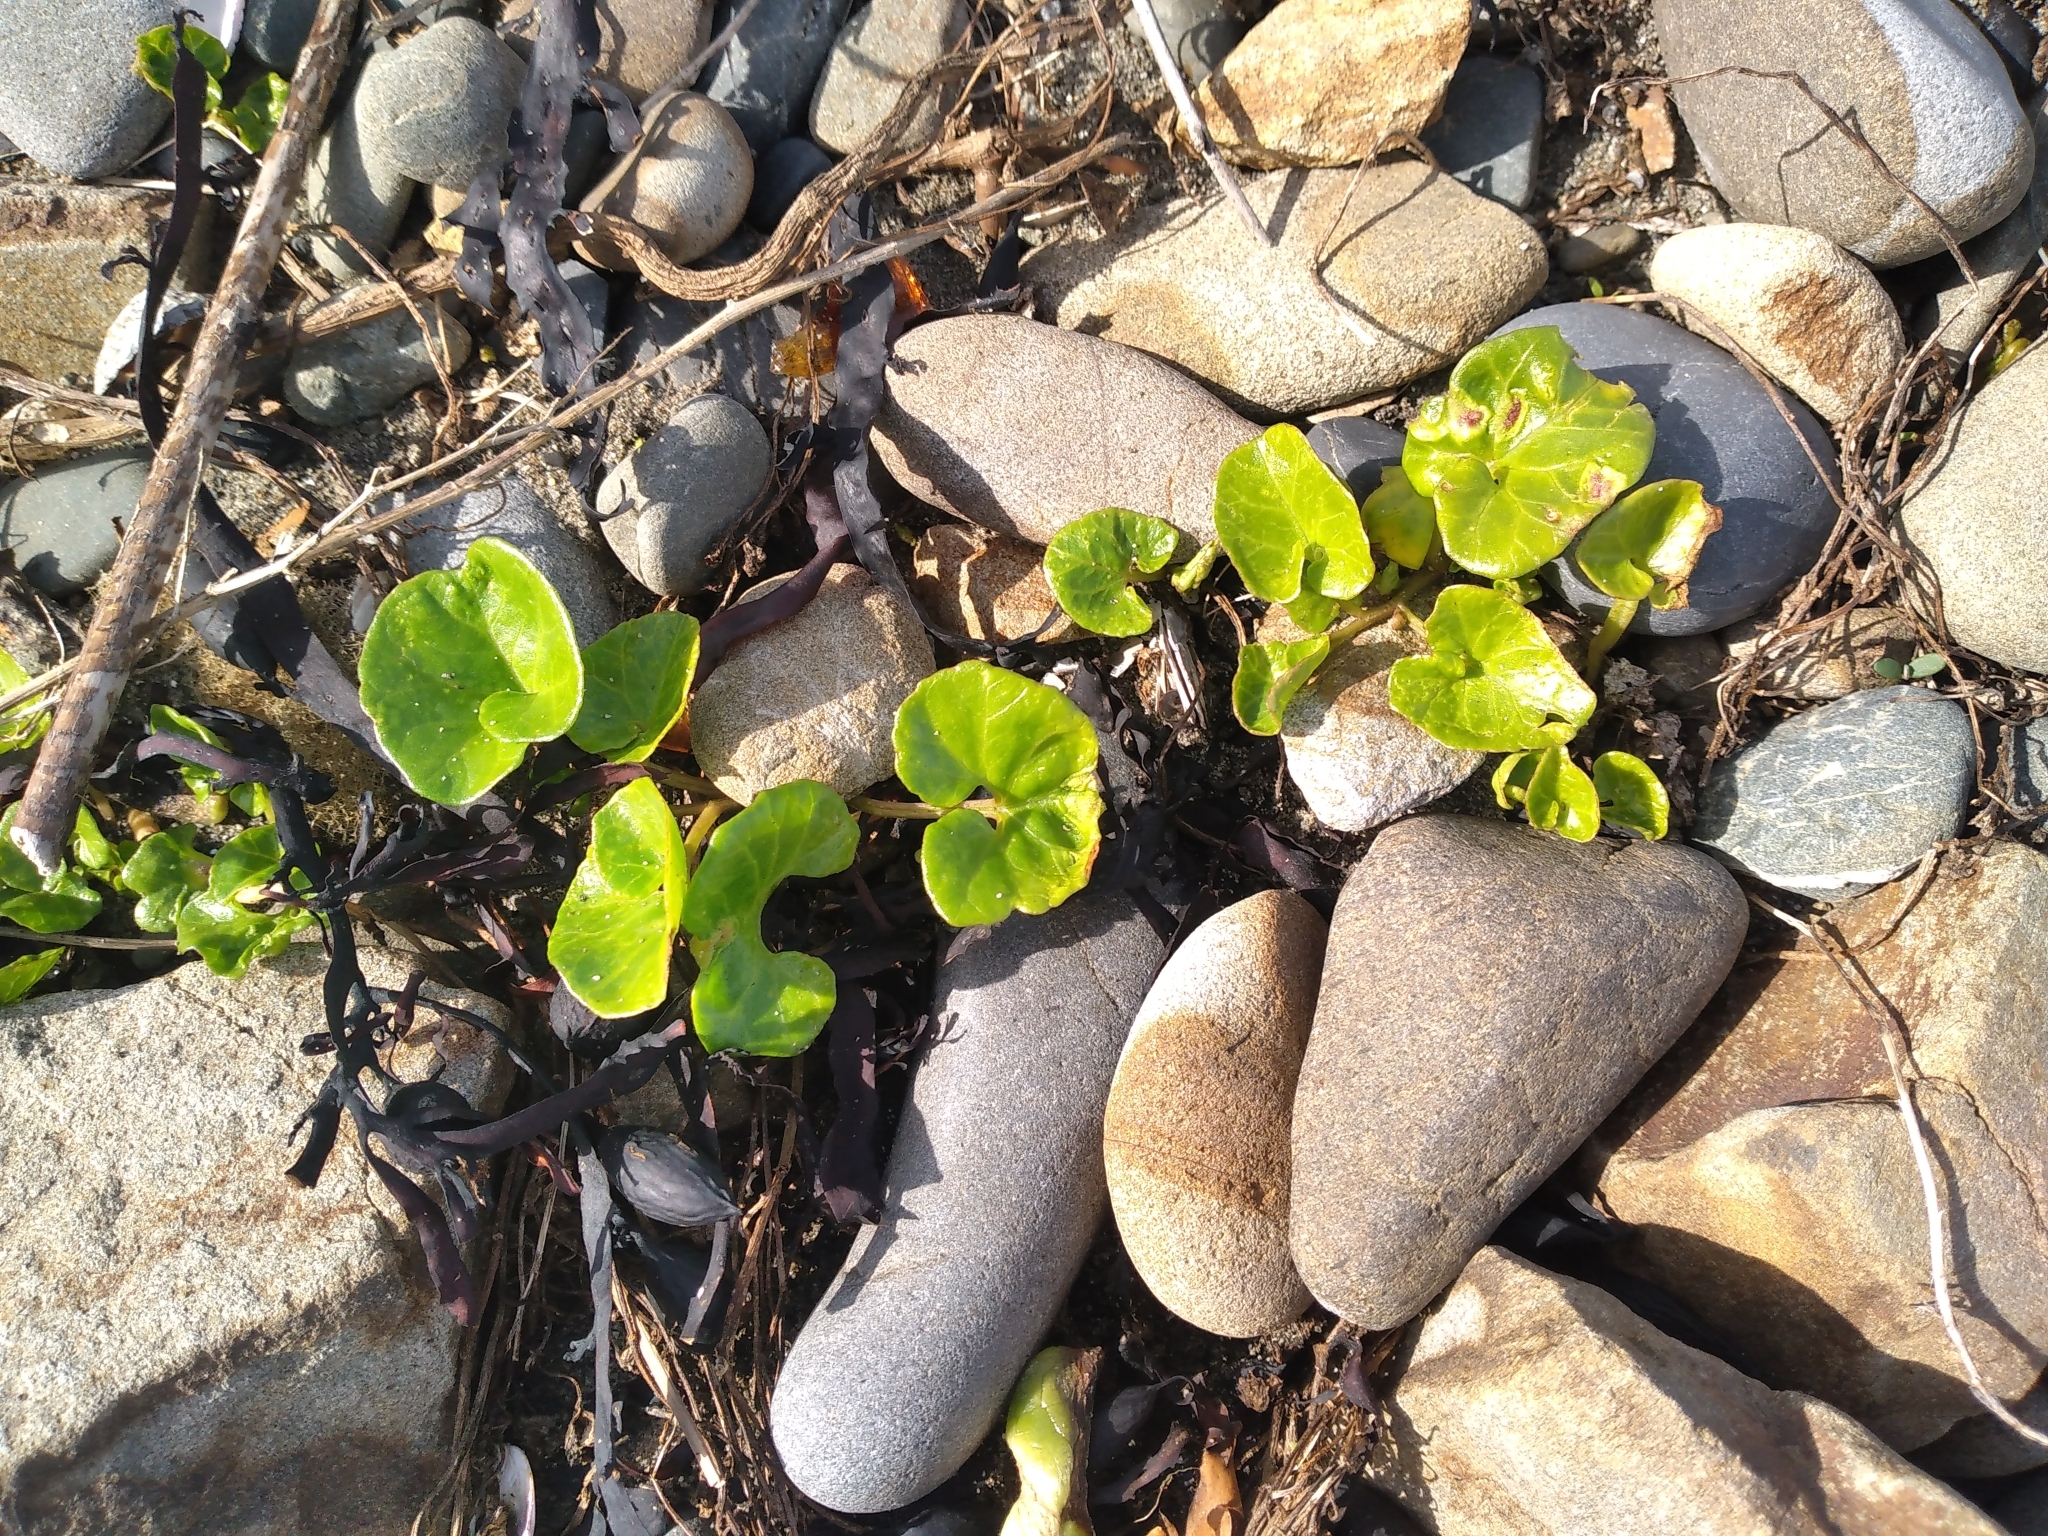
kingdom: Plantae
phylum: Tracheophyta
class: Magnoliopsida
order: Solanales
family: Convolvulaceae
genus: Calystegia
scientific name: Calystegia soldanella
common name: Sea bindweed
